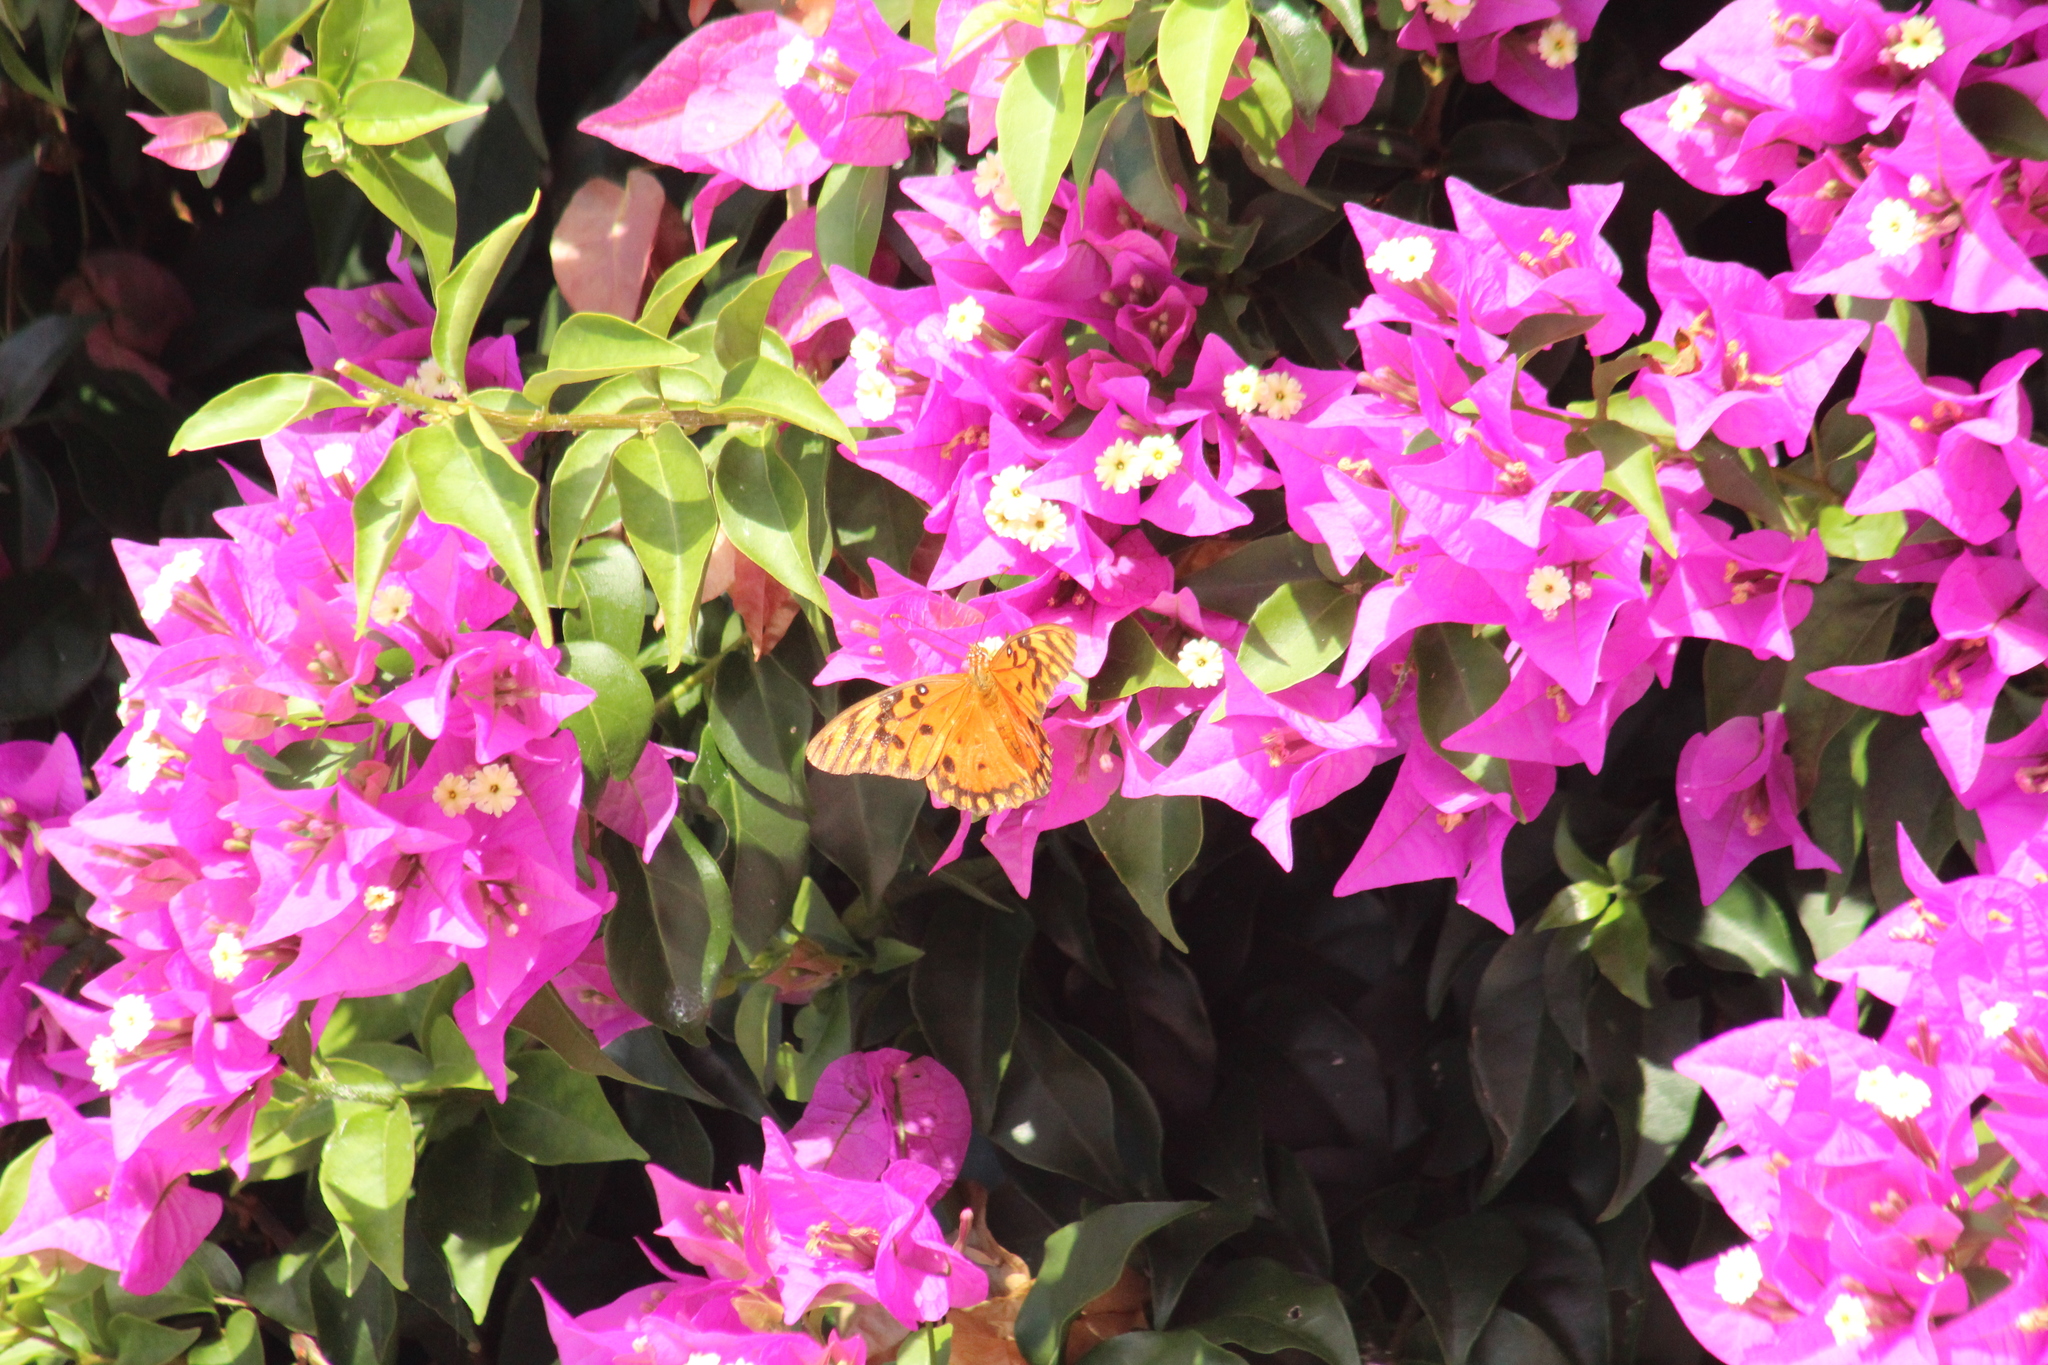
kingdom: Animalia
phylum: Arthropoda
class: Insecta
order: Lepidoptera
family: Nymphalidae
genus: Dione
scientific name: Dione vanillae
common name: Gulf fritillary
